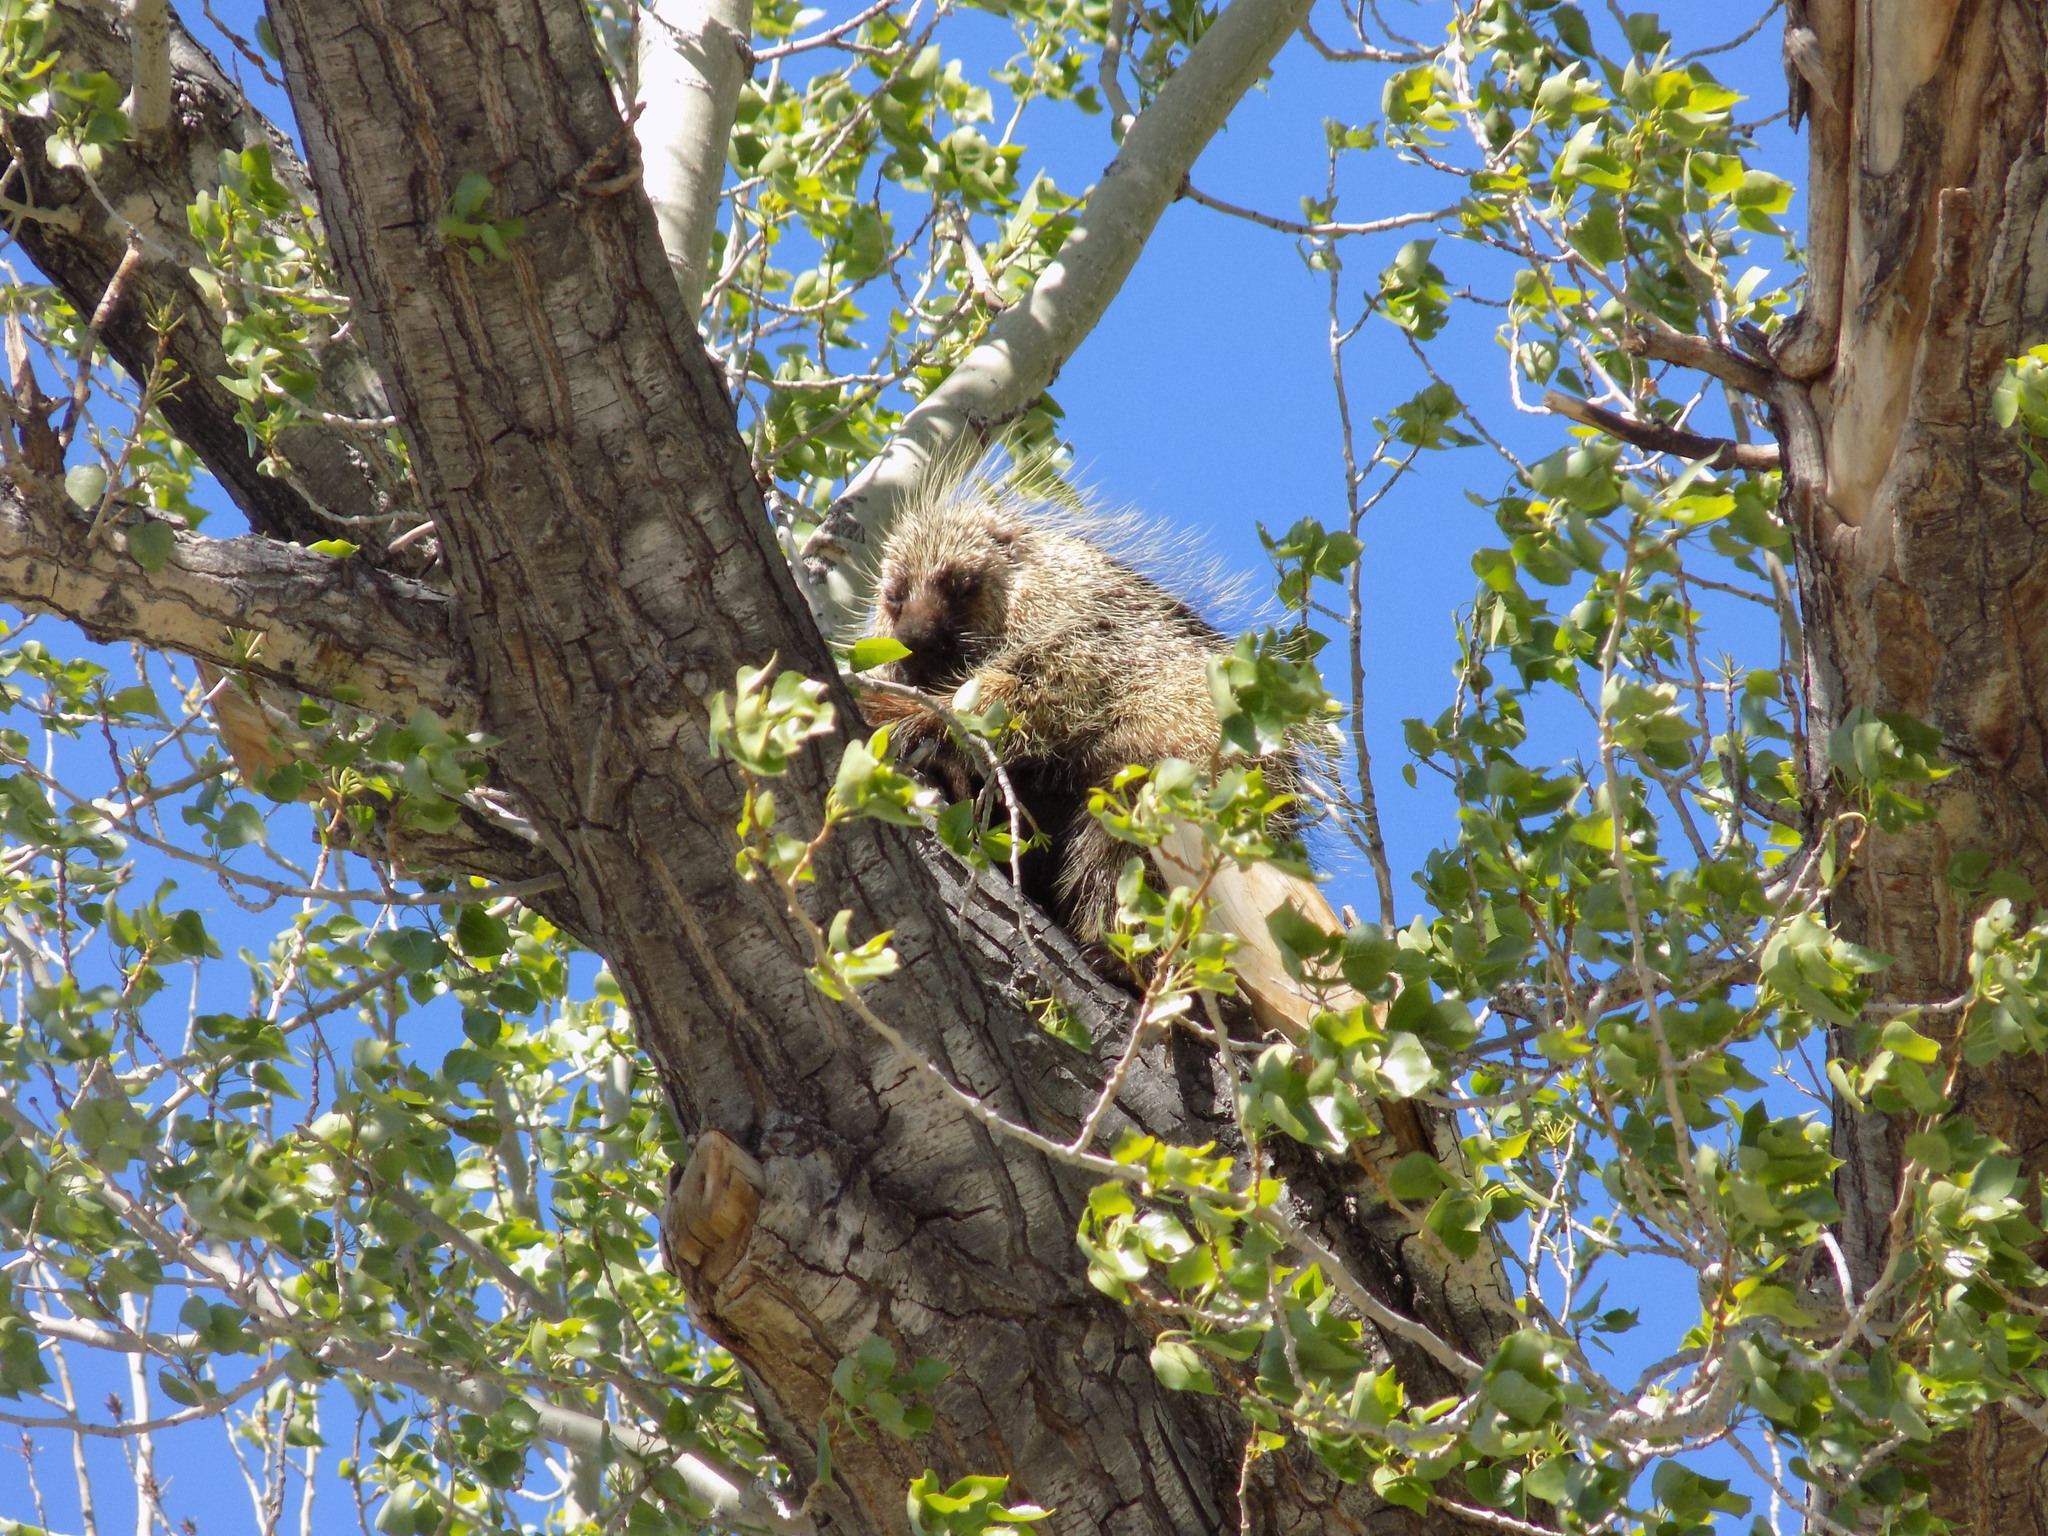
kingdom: Animalia
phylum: Chordata
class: Mammalia
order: Rodentia
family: Erethizontidae
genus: Erethizon
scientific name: Erethizon dorsatus
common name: North american porcupine
